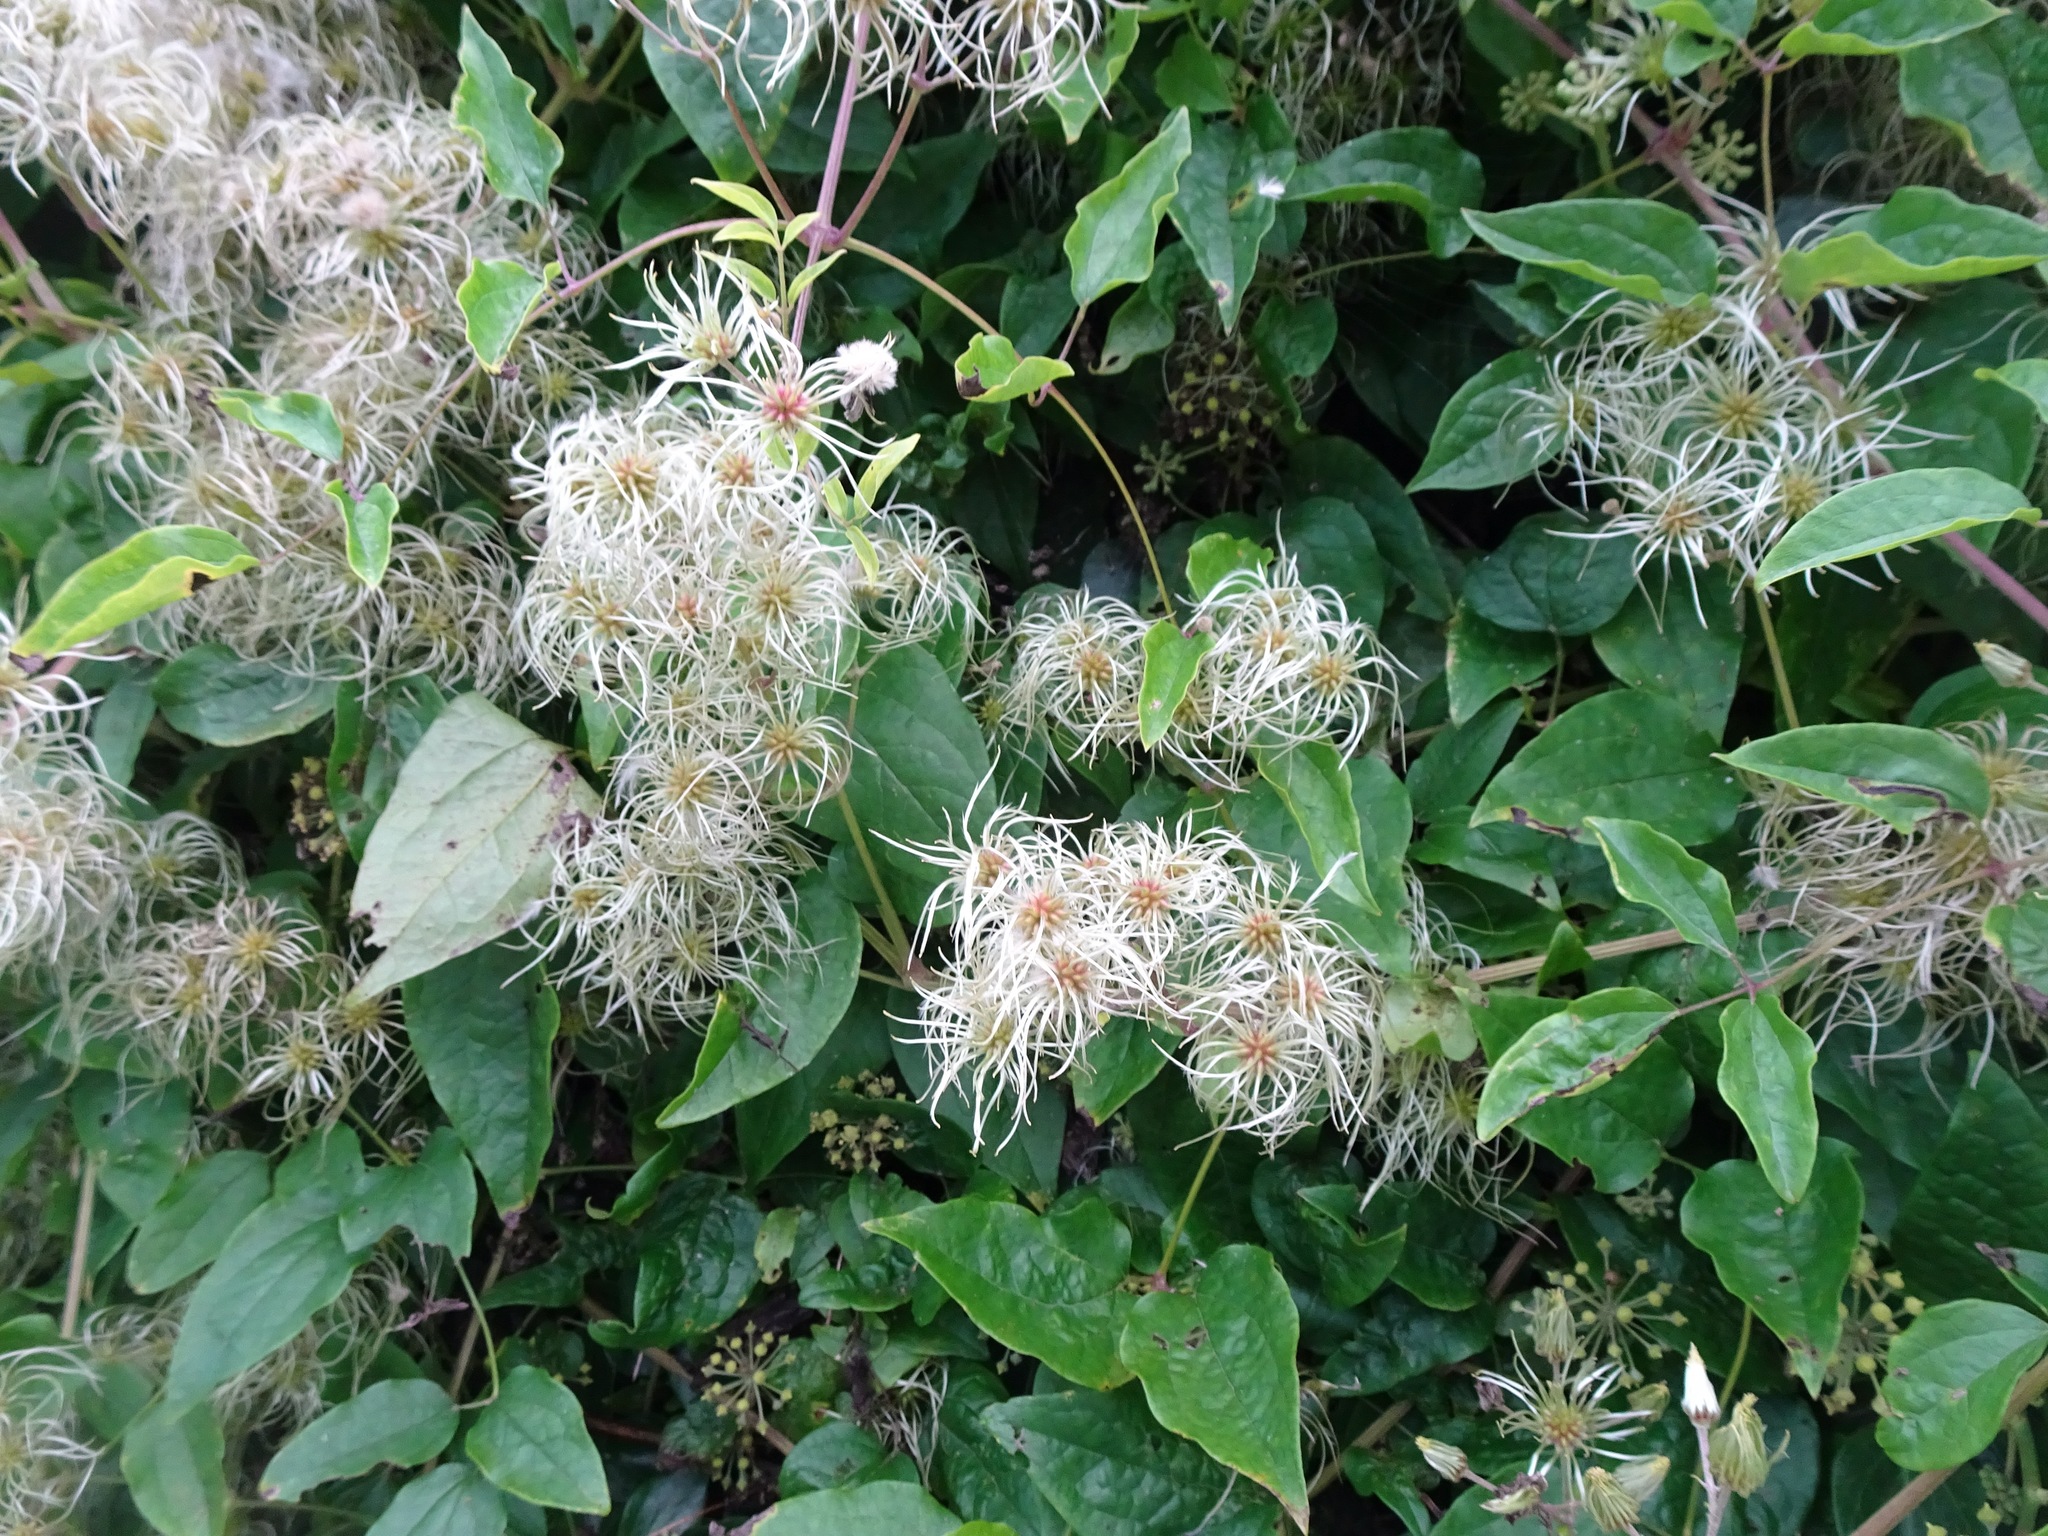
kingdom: Plantae
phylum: Tracheophyta
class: Magnoliopsida
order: Ranunculales
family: Ranunculaceae
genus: Clematis
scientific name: Clematis vitalba
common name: Evergreen clematis
